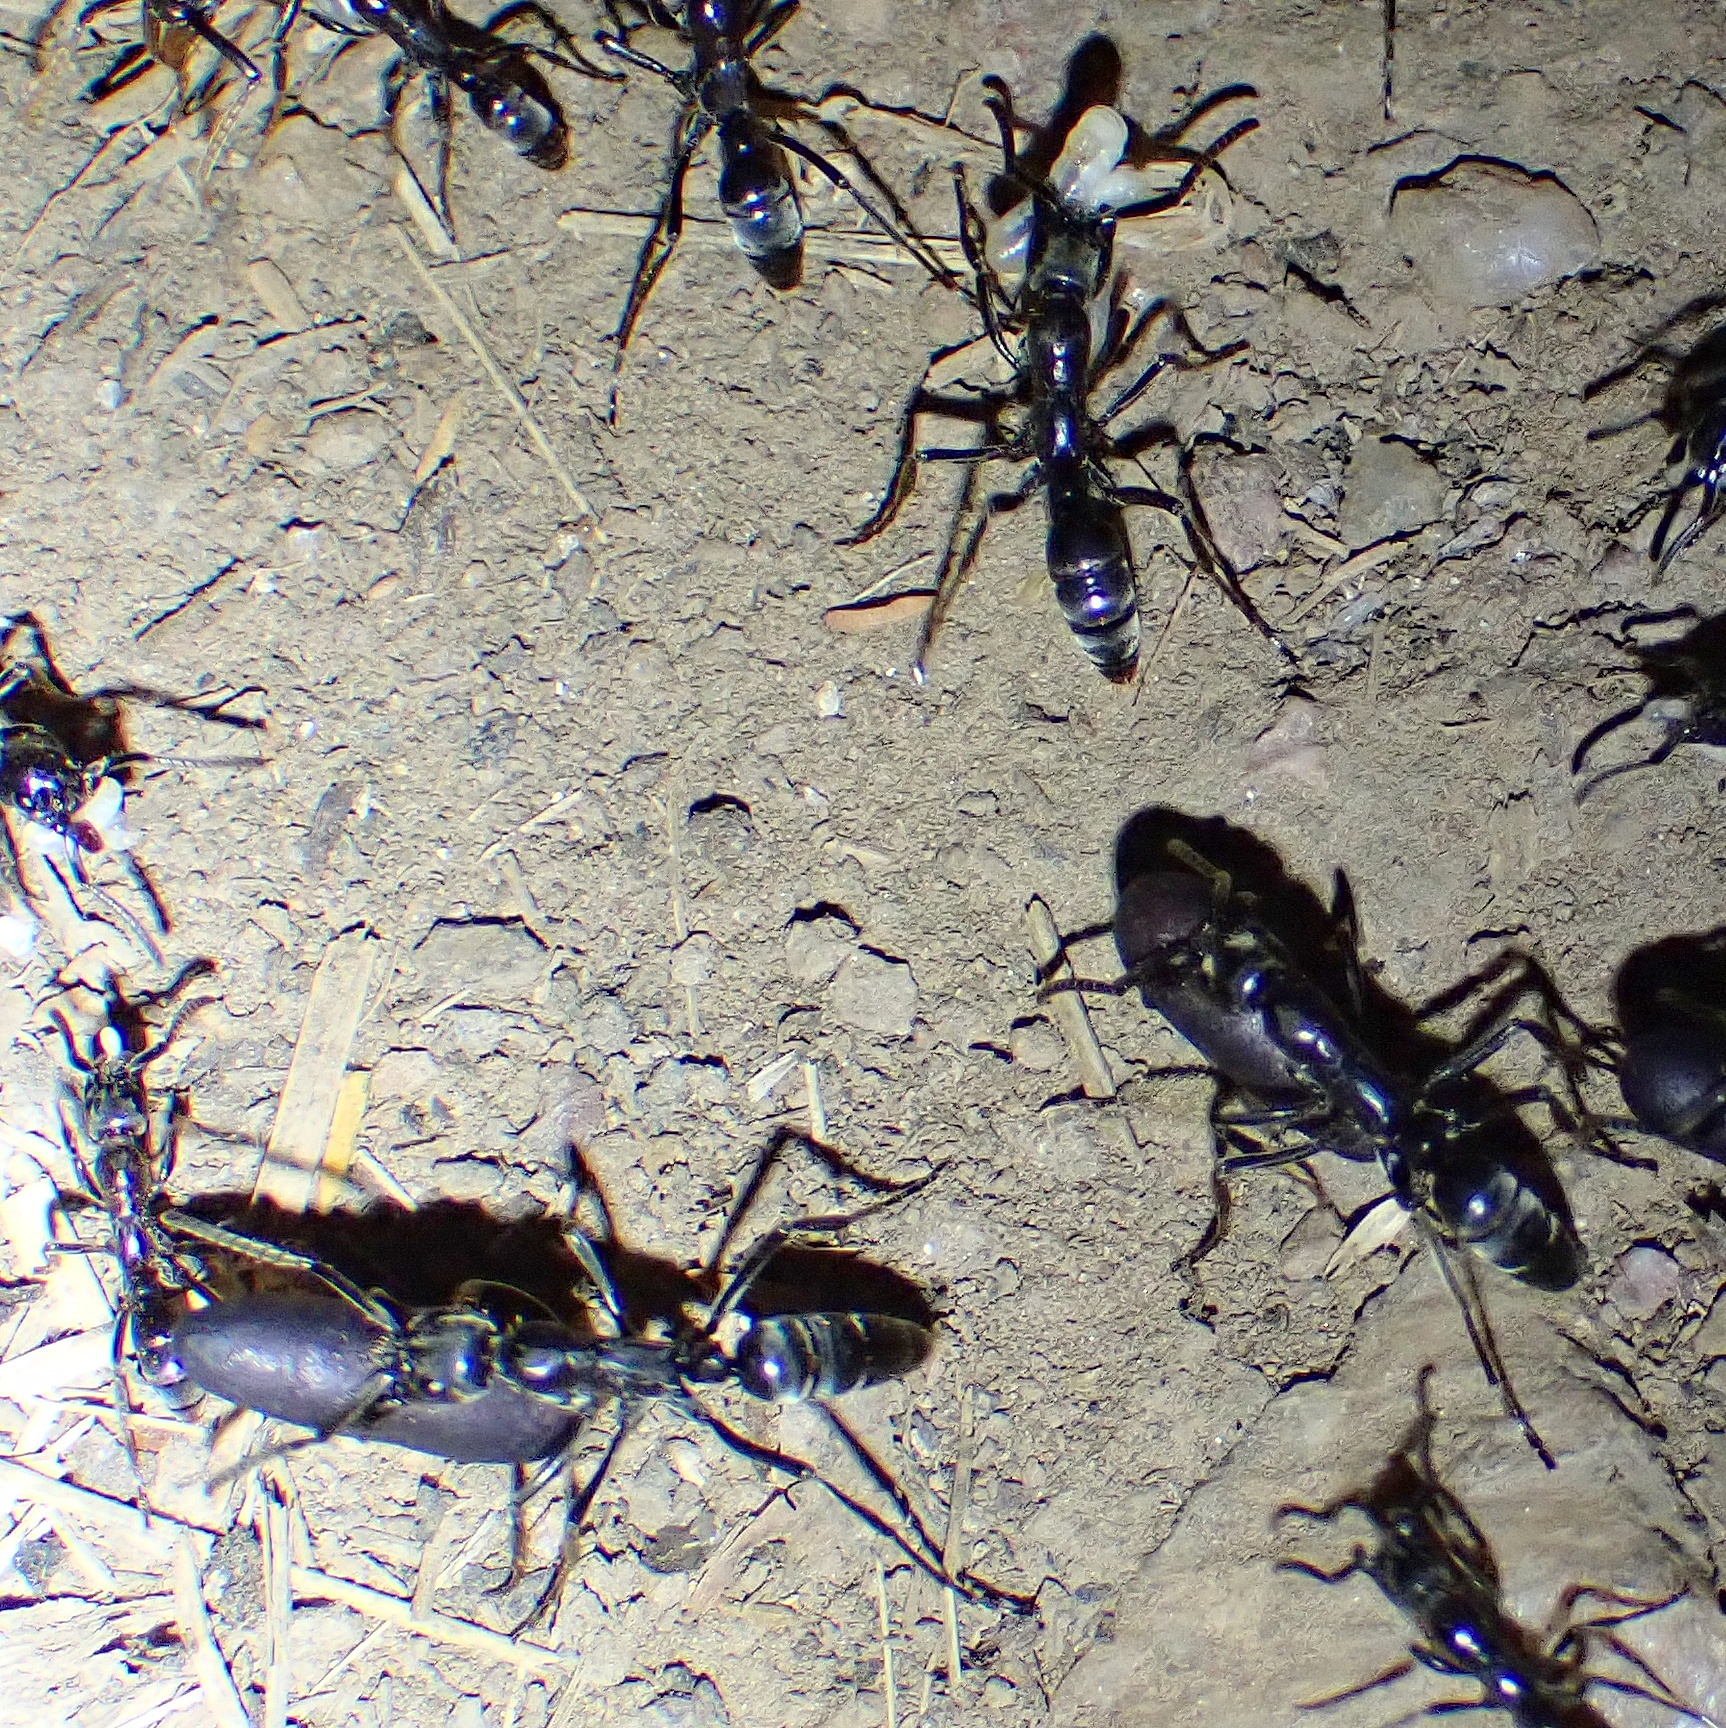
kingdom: Animalia
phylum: Arthropoda
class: Insecta
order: Hymenoptera
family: Formicidae
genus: Megaponera
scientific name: Megaponera analis
